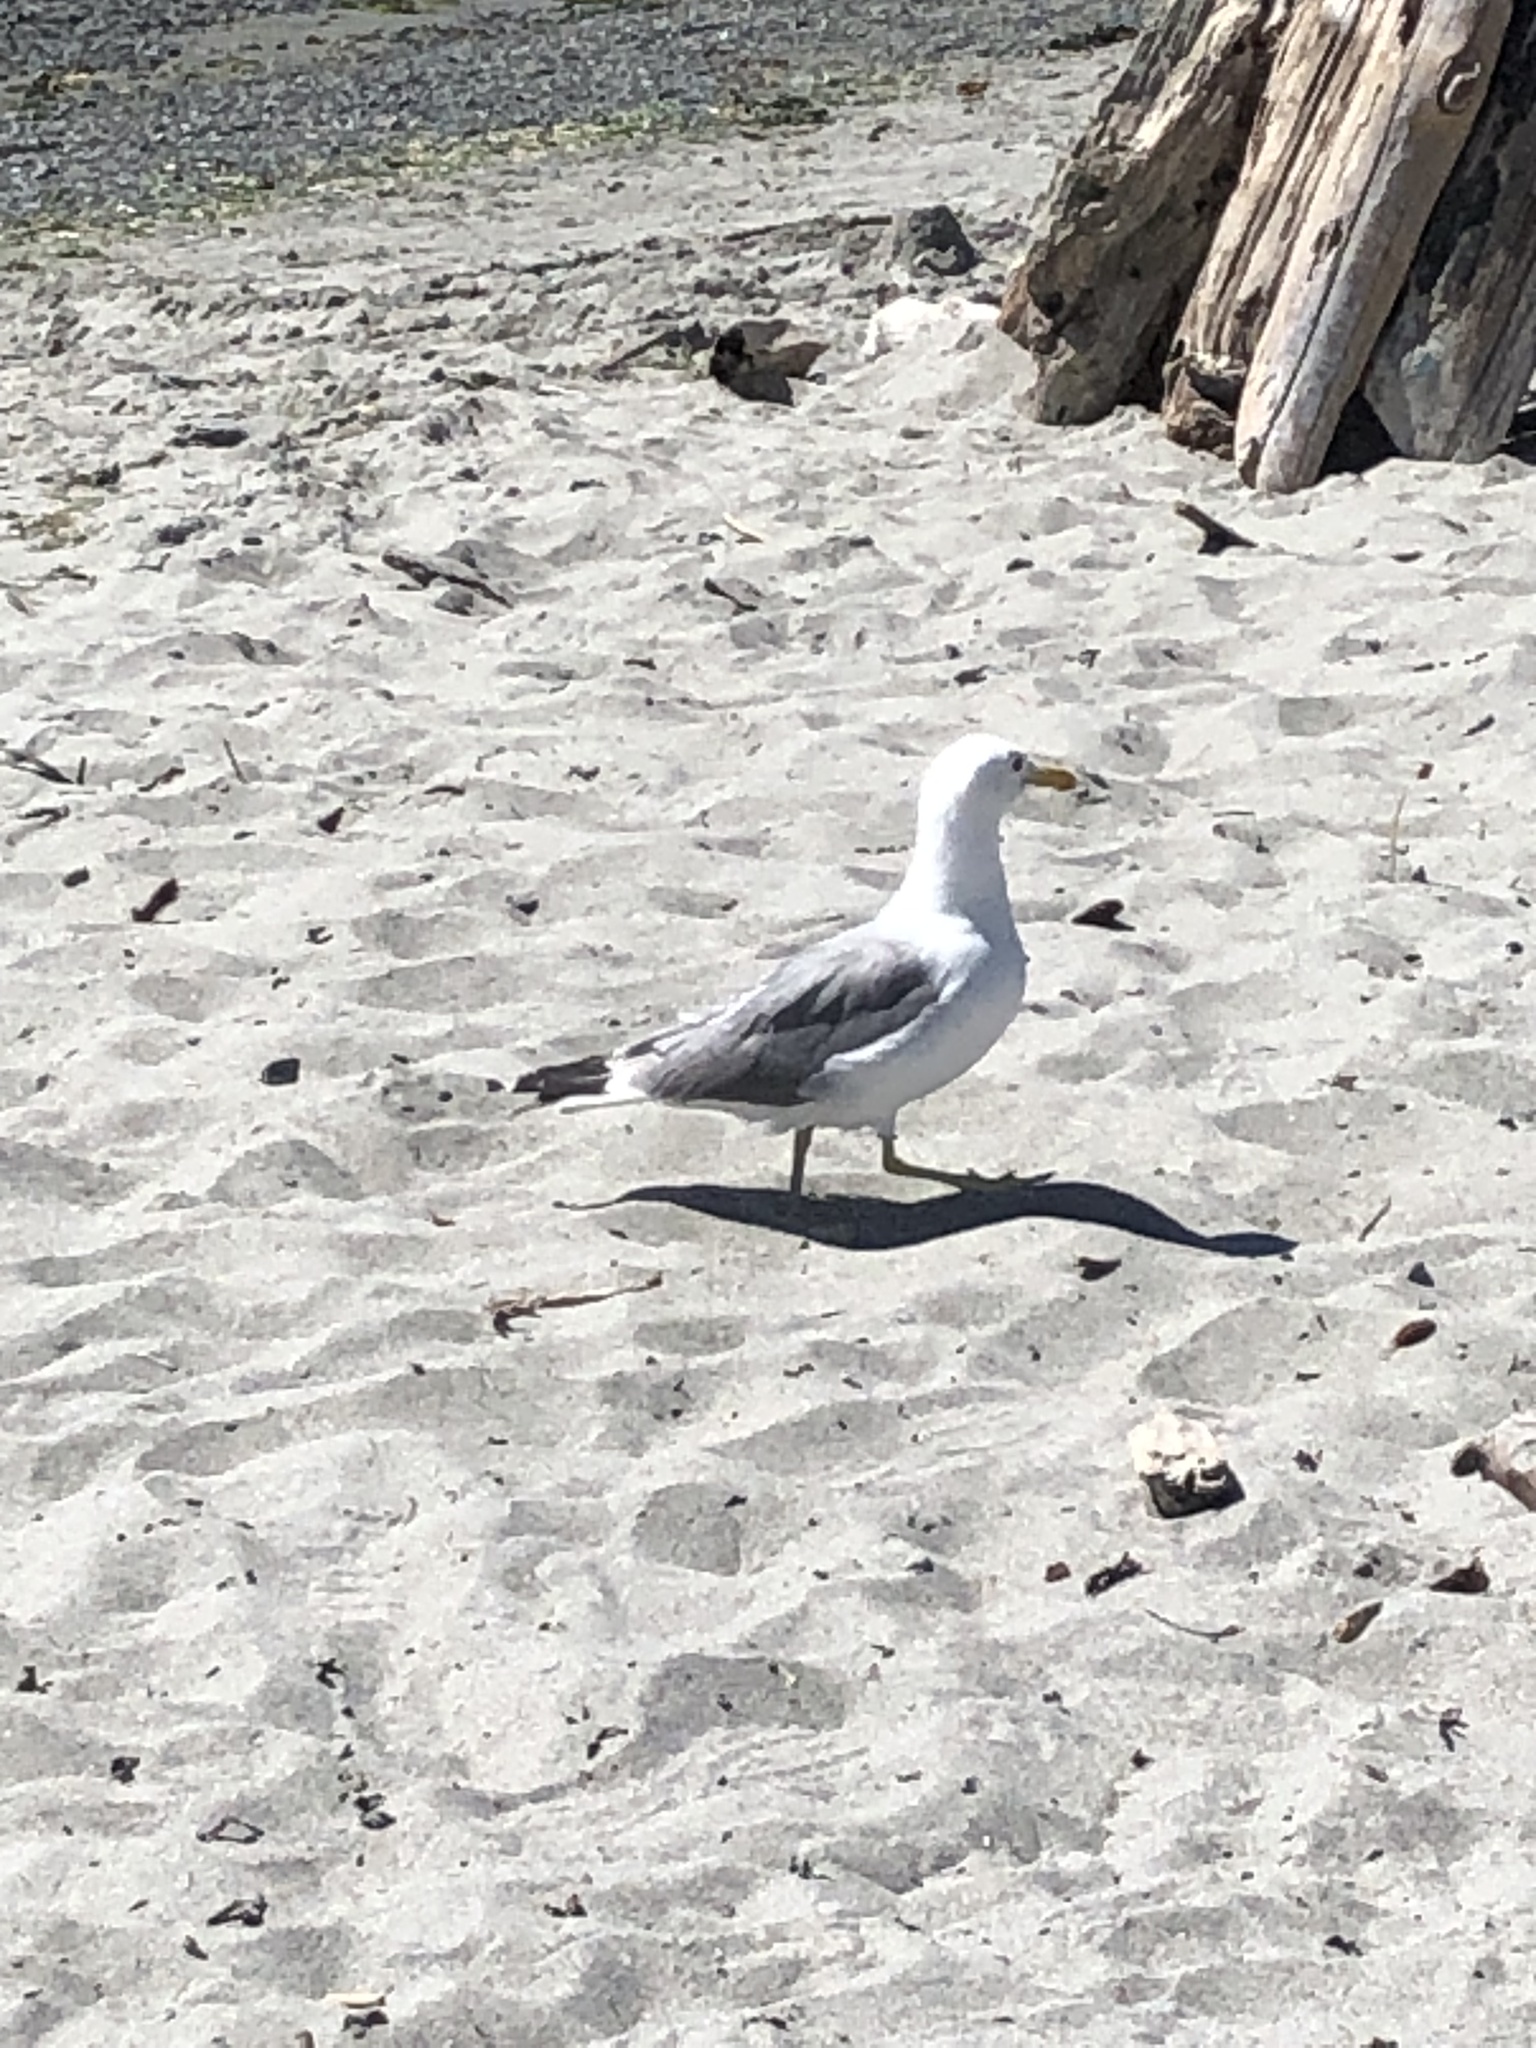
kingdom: Animalia
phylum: Chordata
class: Aves
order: Charadriiformes
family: Laridae
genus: Larus
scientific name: Larus californicus
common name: California gull
